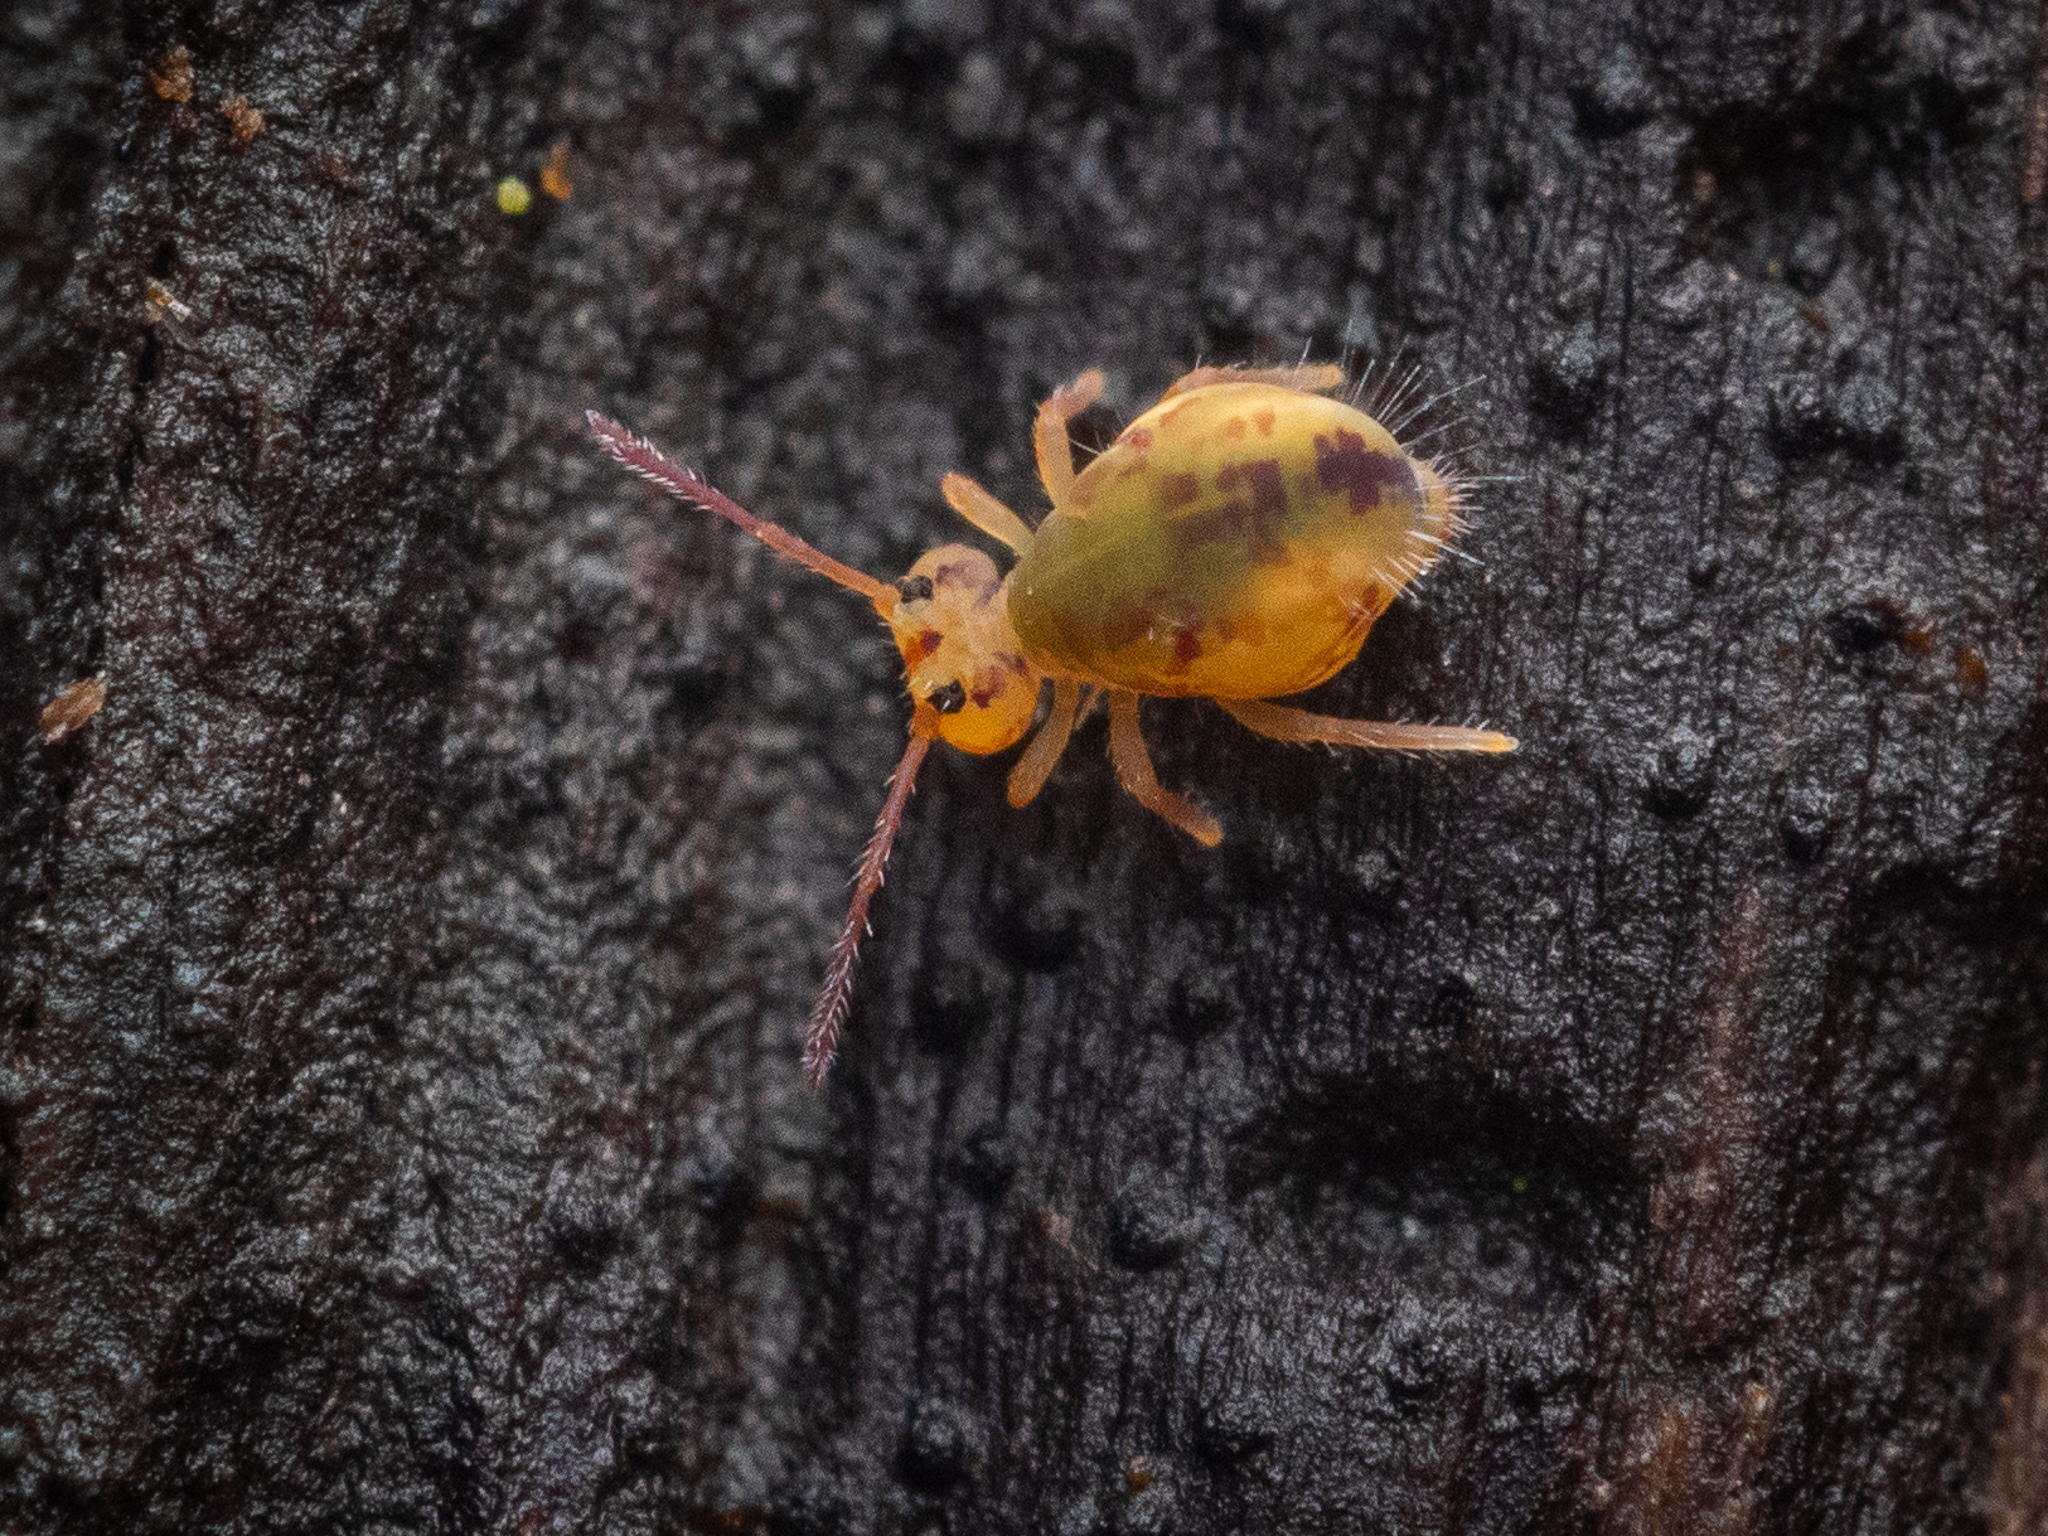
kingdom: Animalia
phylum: Arthropoda
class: Collembola
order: Symphypleona
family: Dicyrtomidae
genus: Dicyrtomina
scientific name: Dicyrtomina ornata
